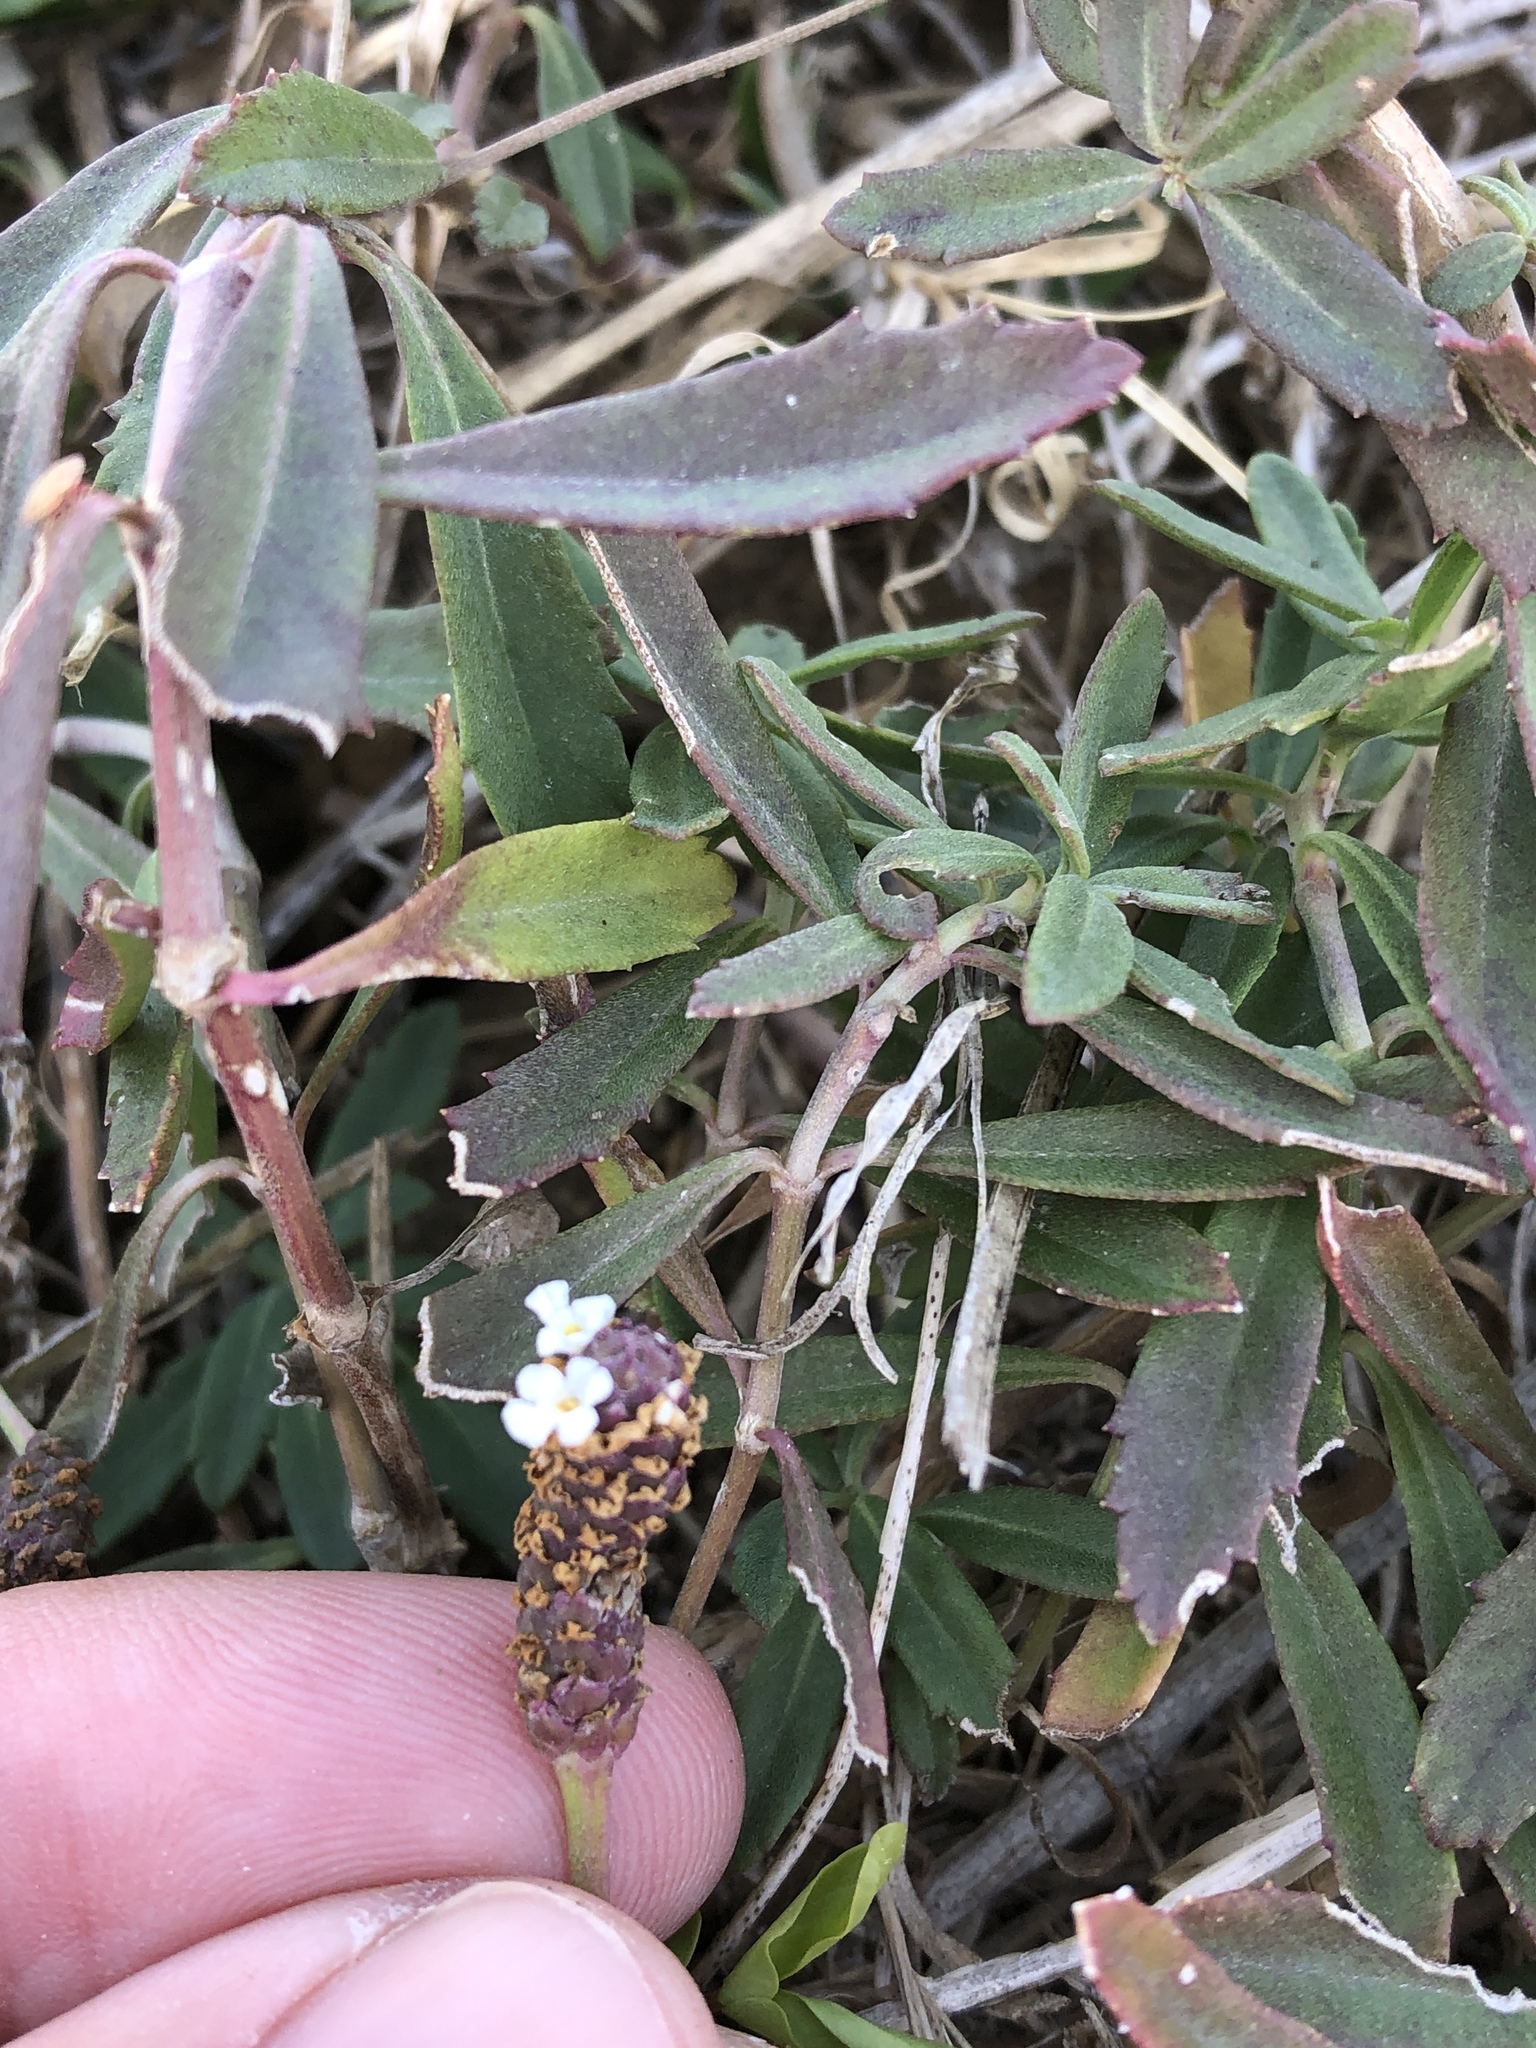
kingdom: Plantae
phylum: Tracheophyta
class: Magnoliopsida
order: Lamiales
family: Verbenaceae
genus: Phyla
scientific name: Phyla nodiflora
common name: Frogfruit
